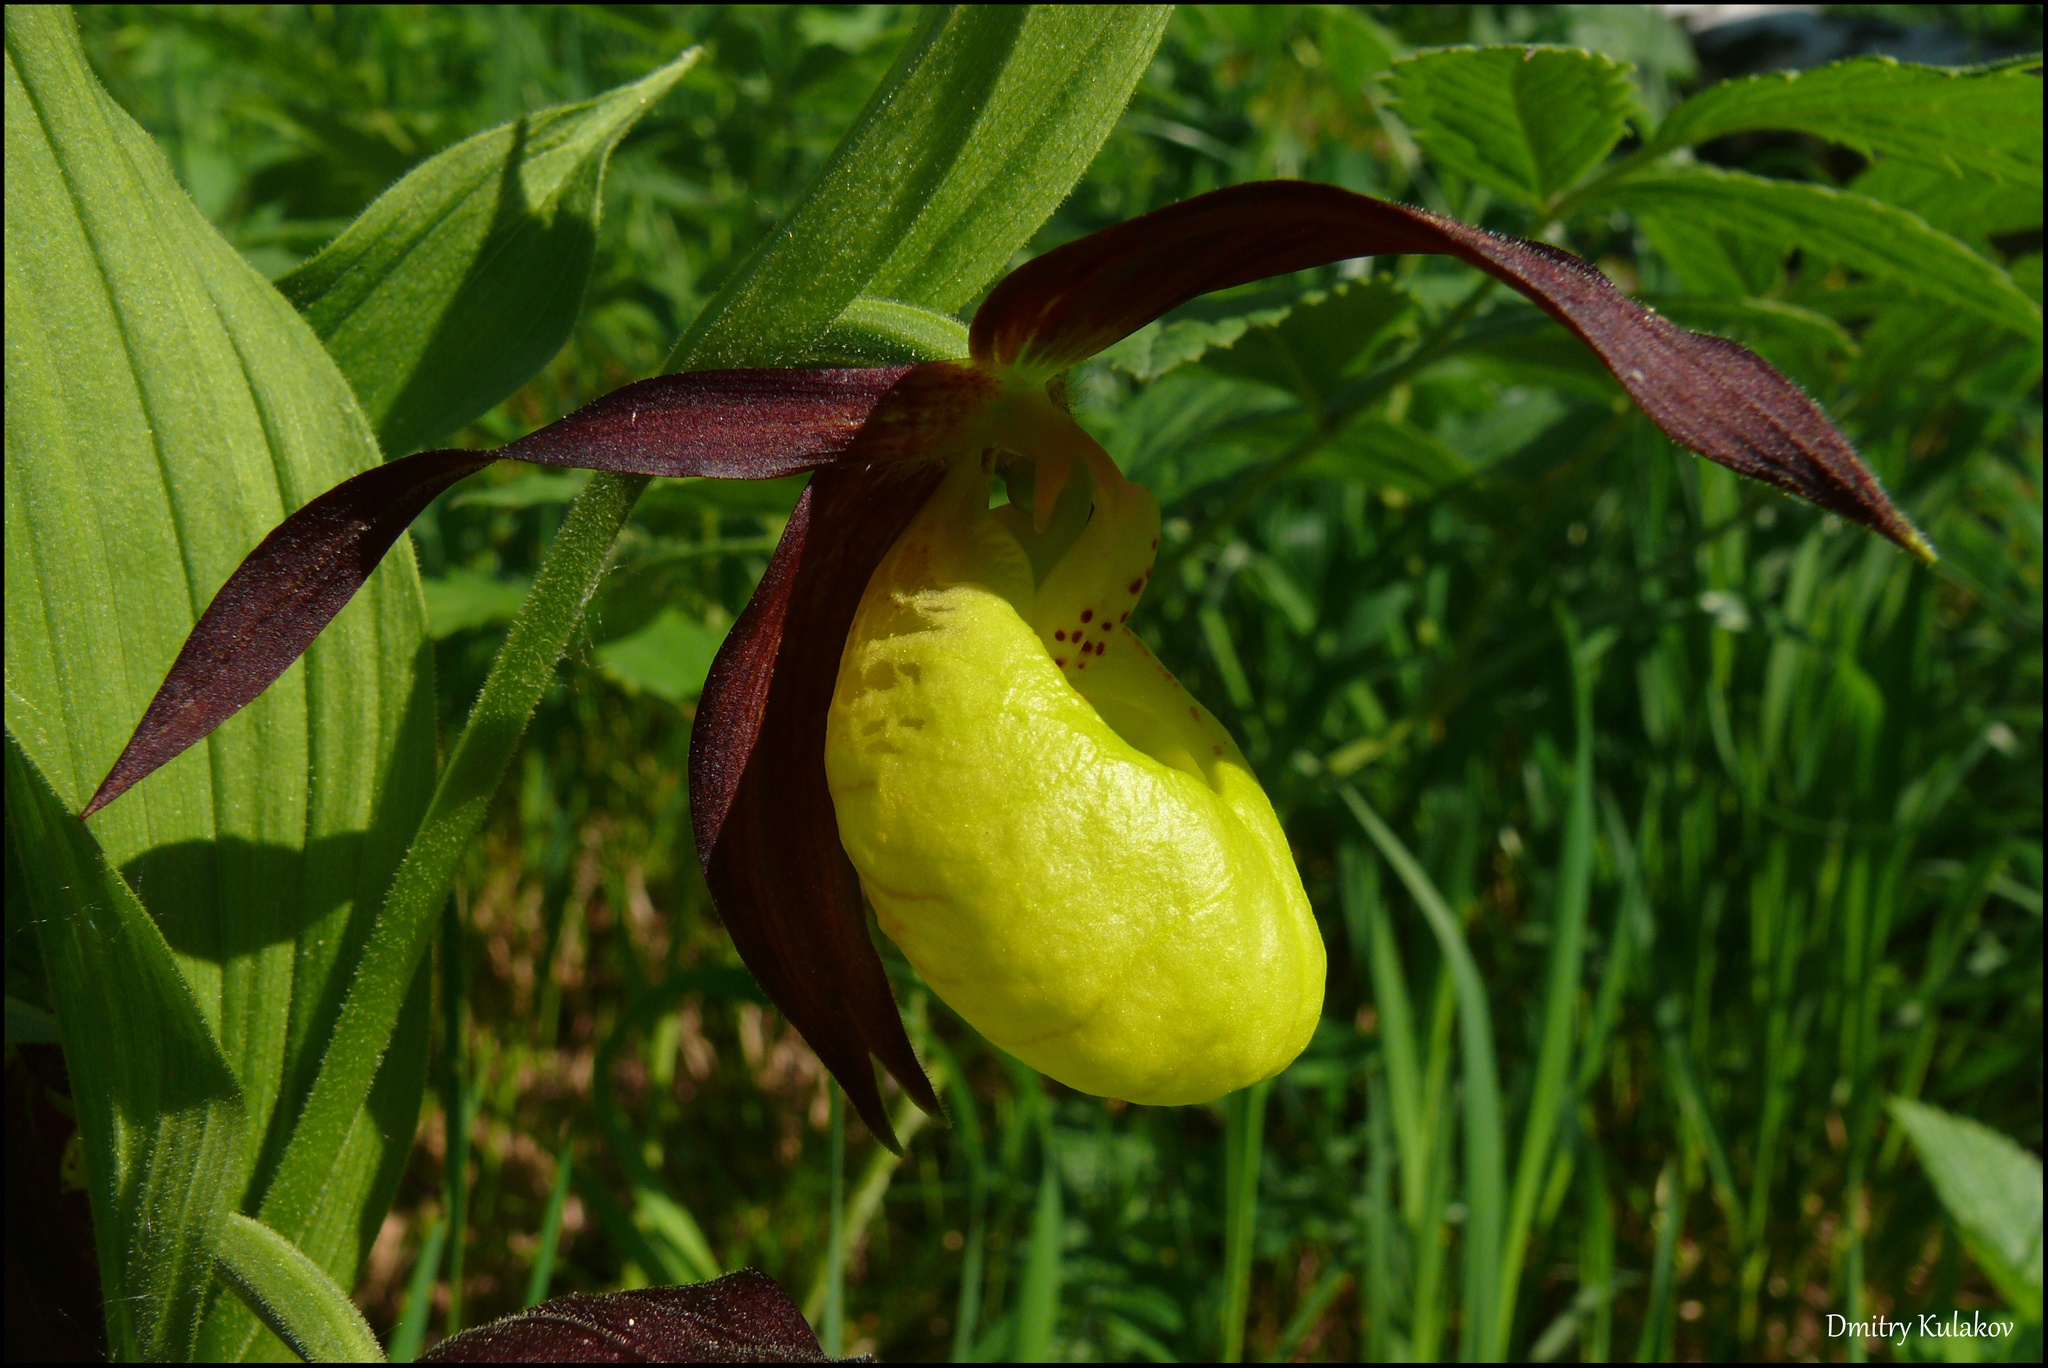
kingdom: Plantae
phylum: Tracheophyta
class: Liliopsida
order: Asparagales
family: Orchidaceae
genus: Cypripedium
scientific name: Cypripedium calceolus
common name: Lady's-slipper
